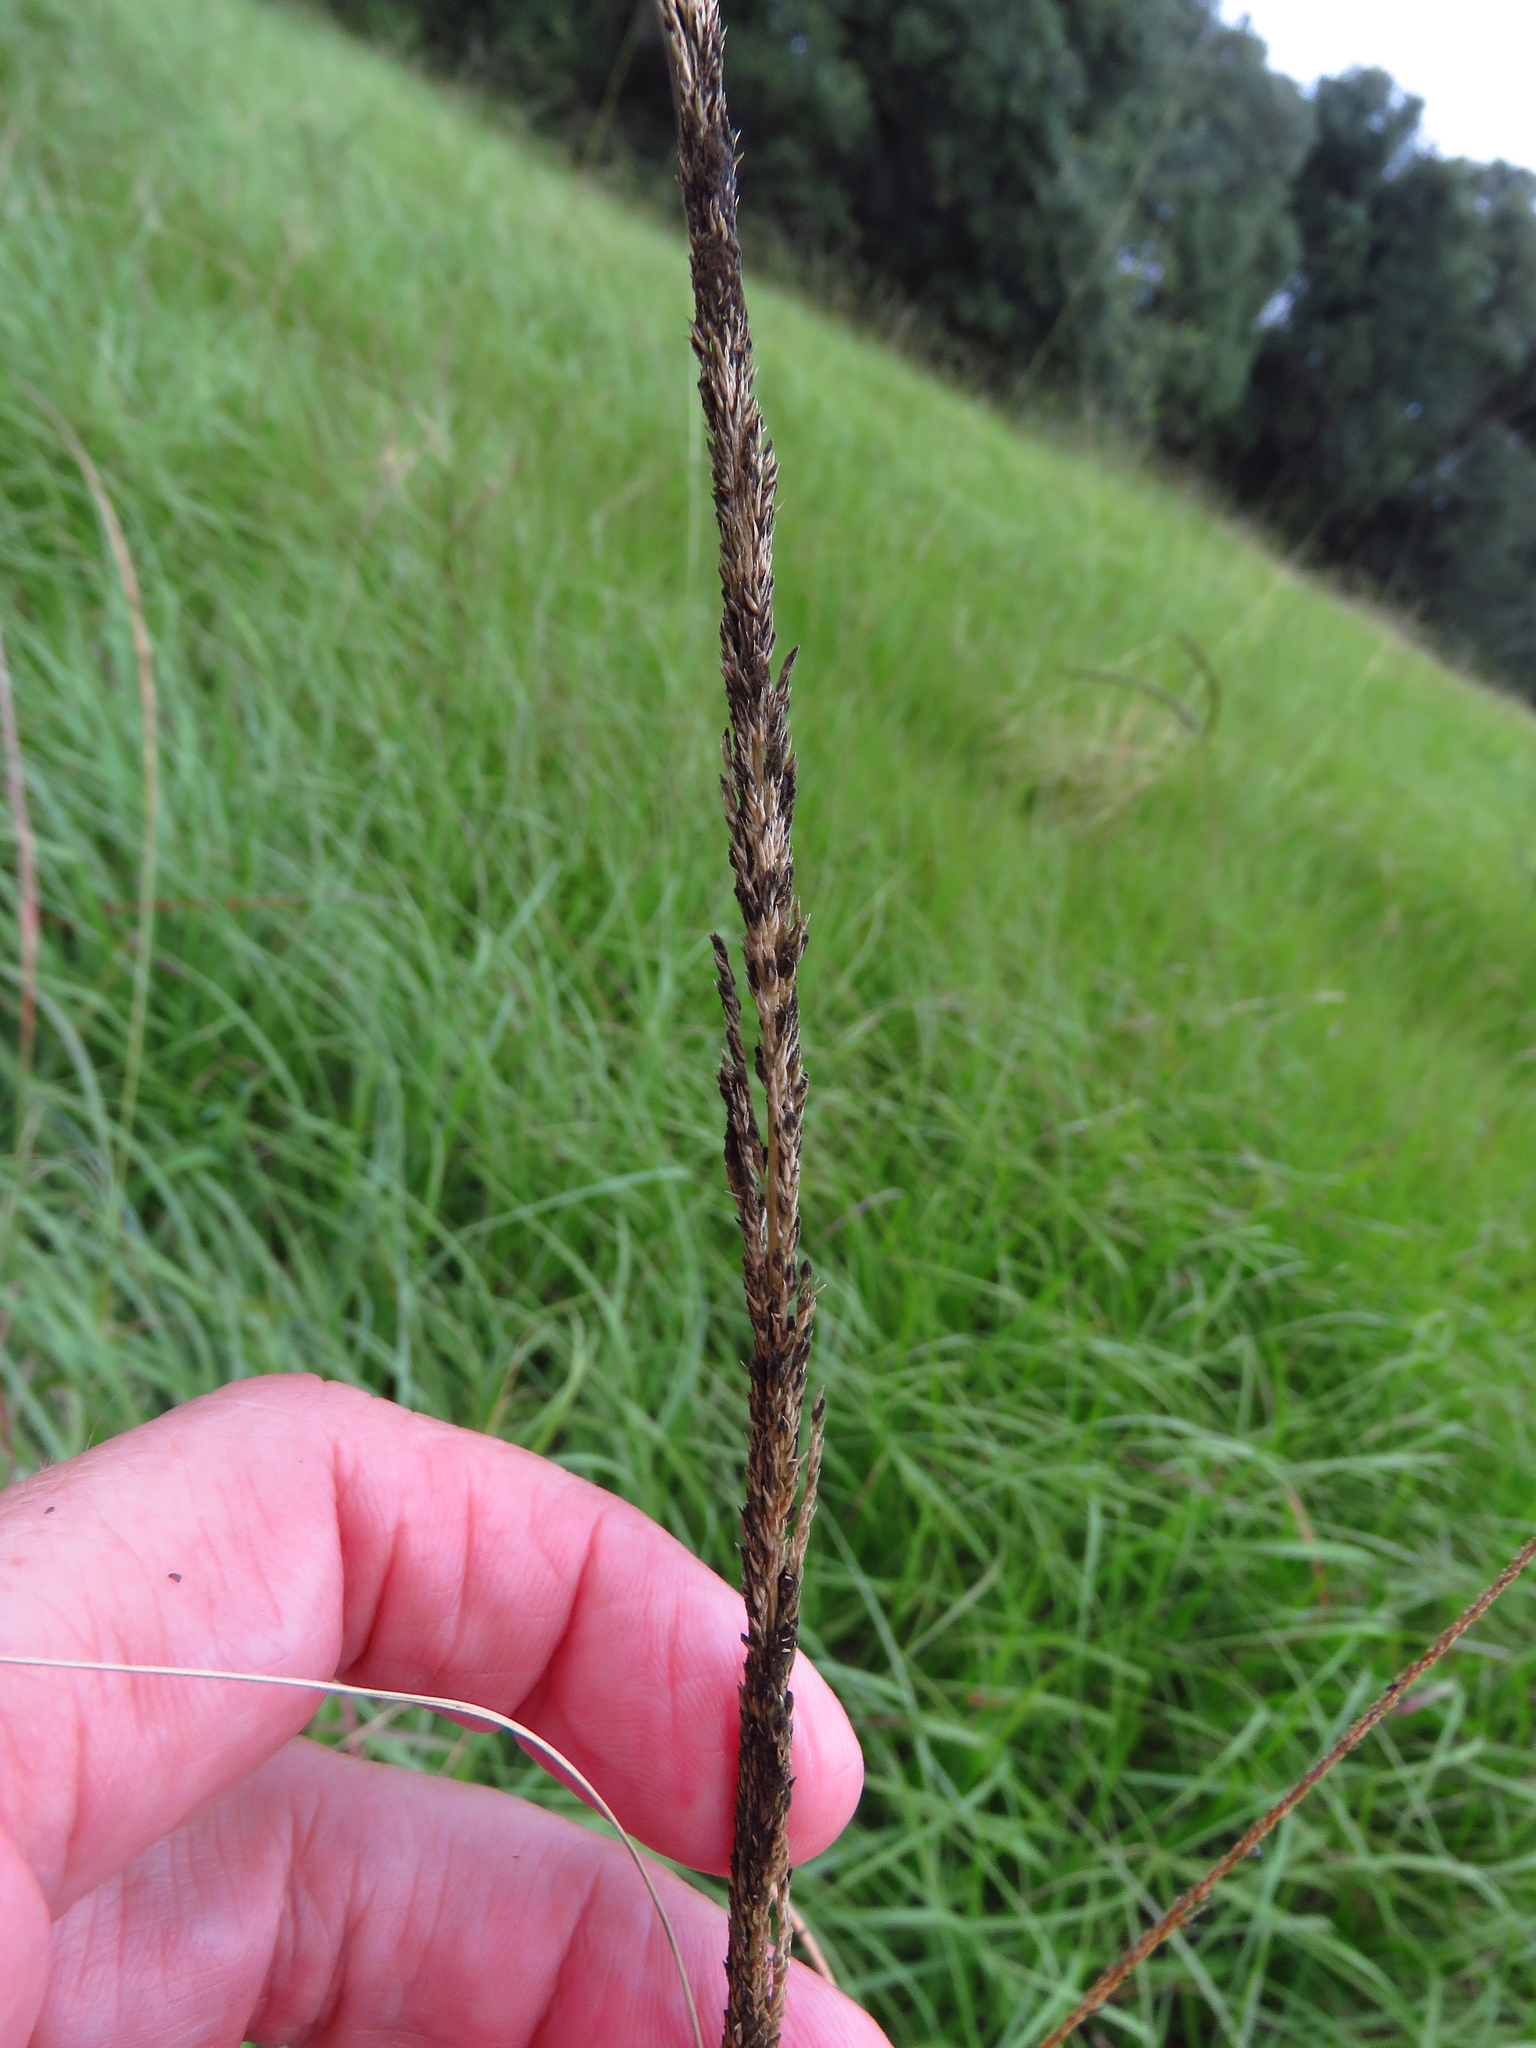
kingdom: Plantae
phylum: Tracheophyta
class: Liliopsida
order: Poales
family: Poaceae
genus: Sporobolus
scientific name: Sporobolus indicus
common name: Smut grass
